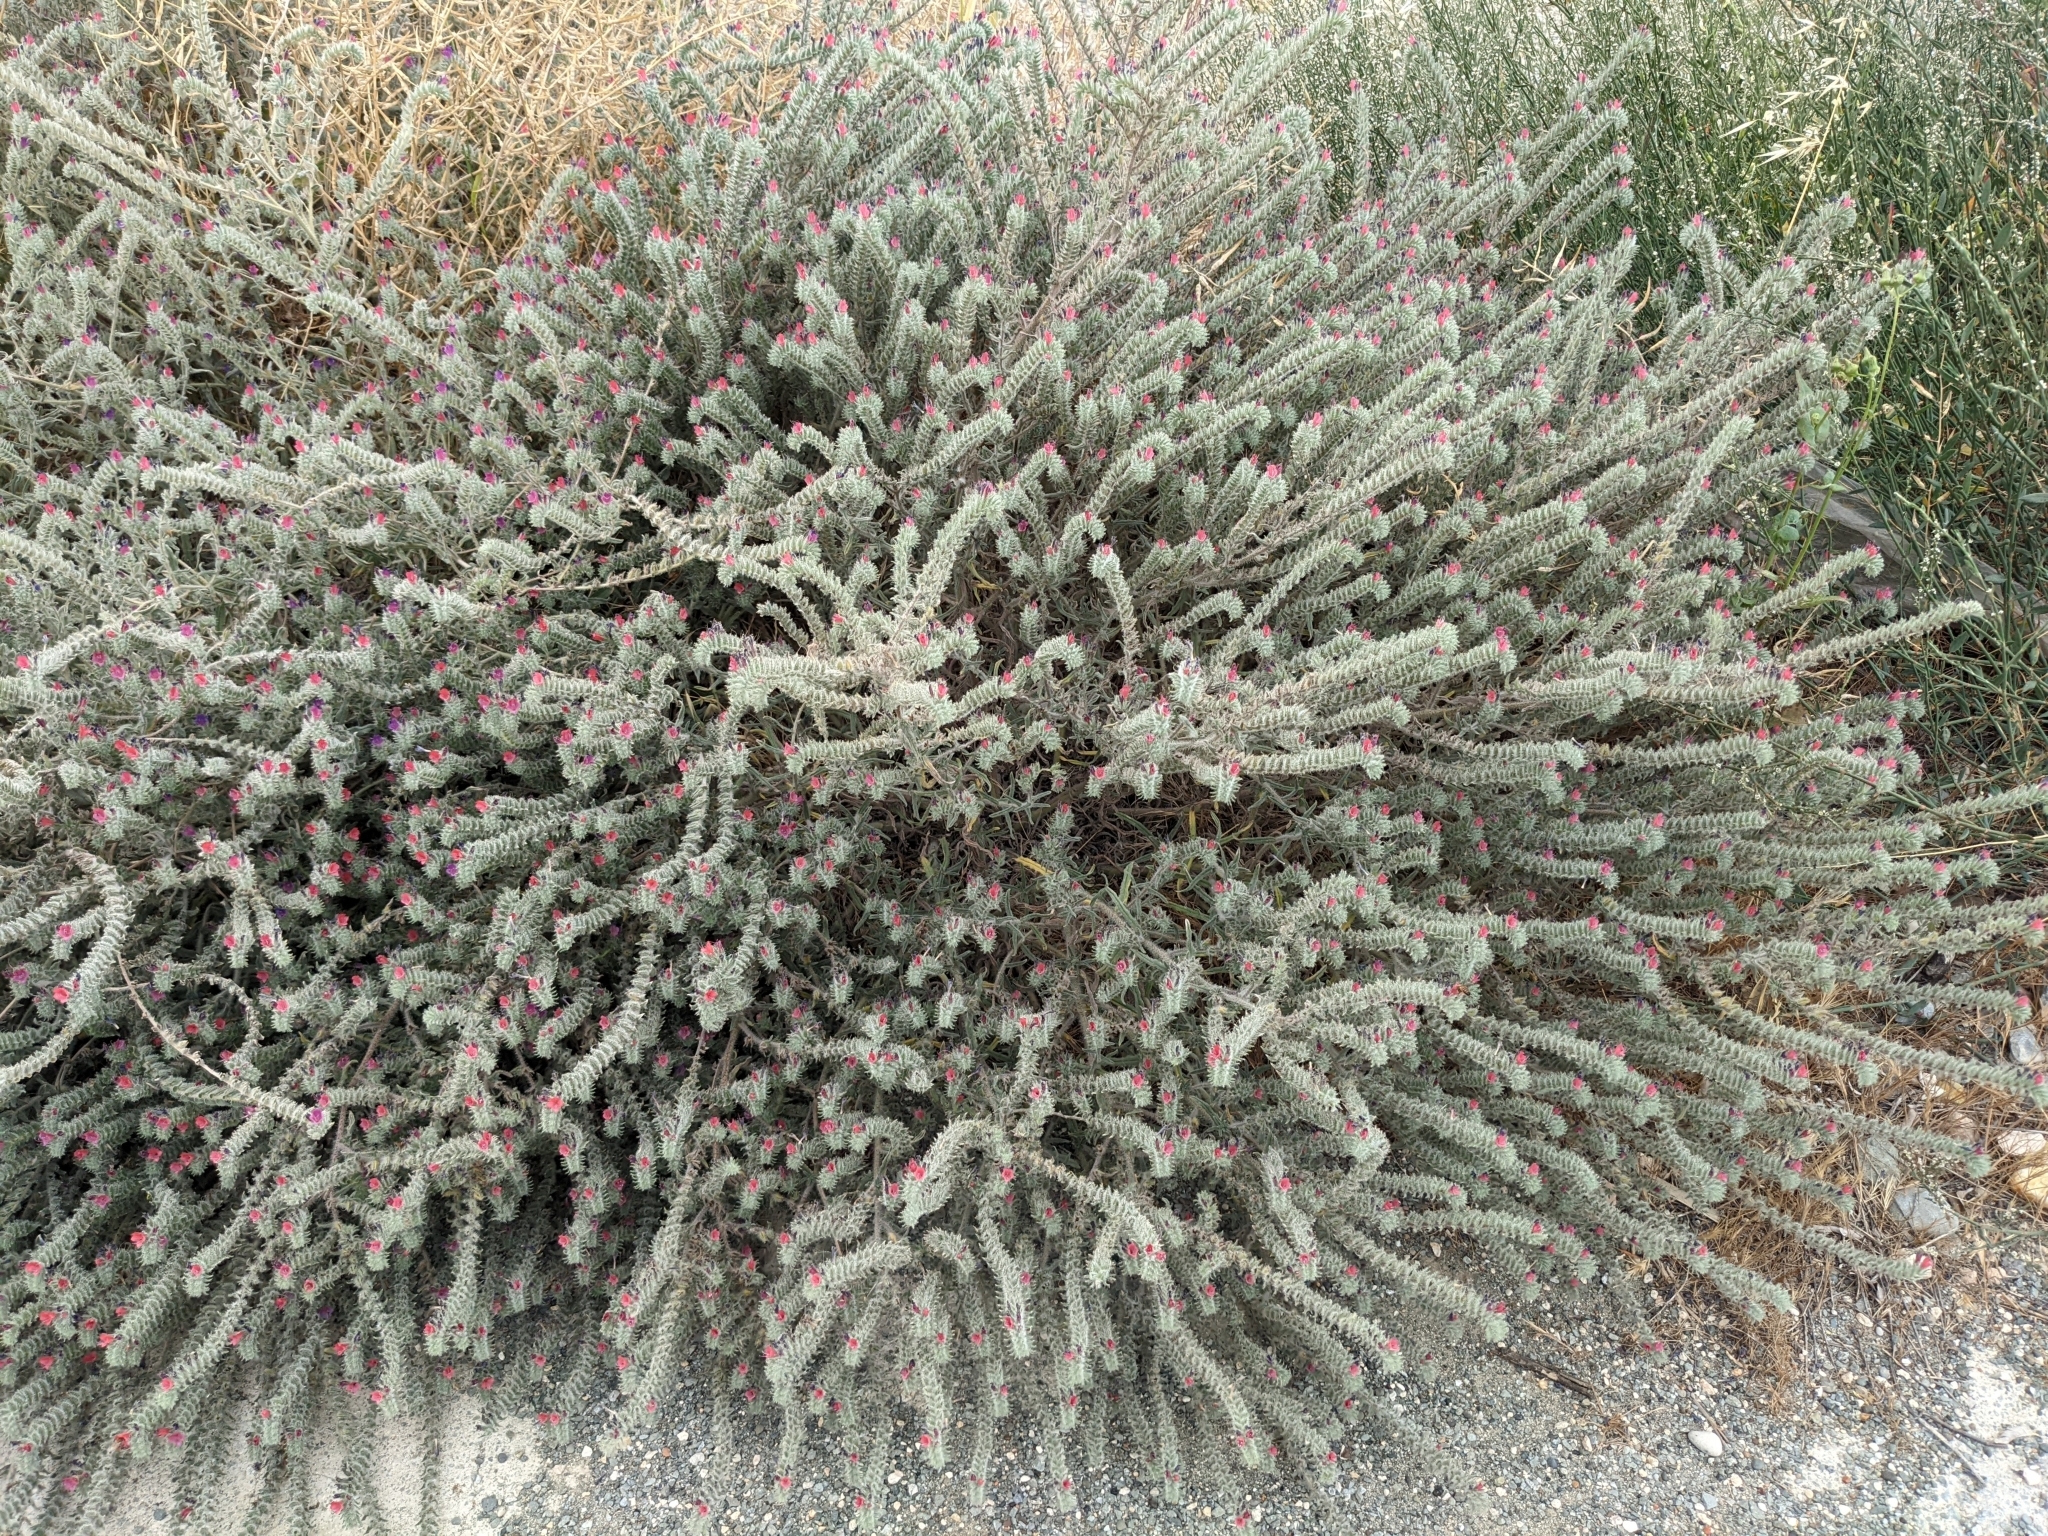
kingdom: Plantae
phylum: Tracheophyta
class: Magnoliopsida
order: Boraginales
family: Boraginaceae
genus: Echium
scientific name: Echium angustifolium
